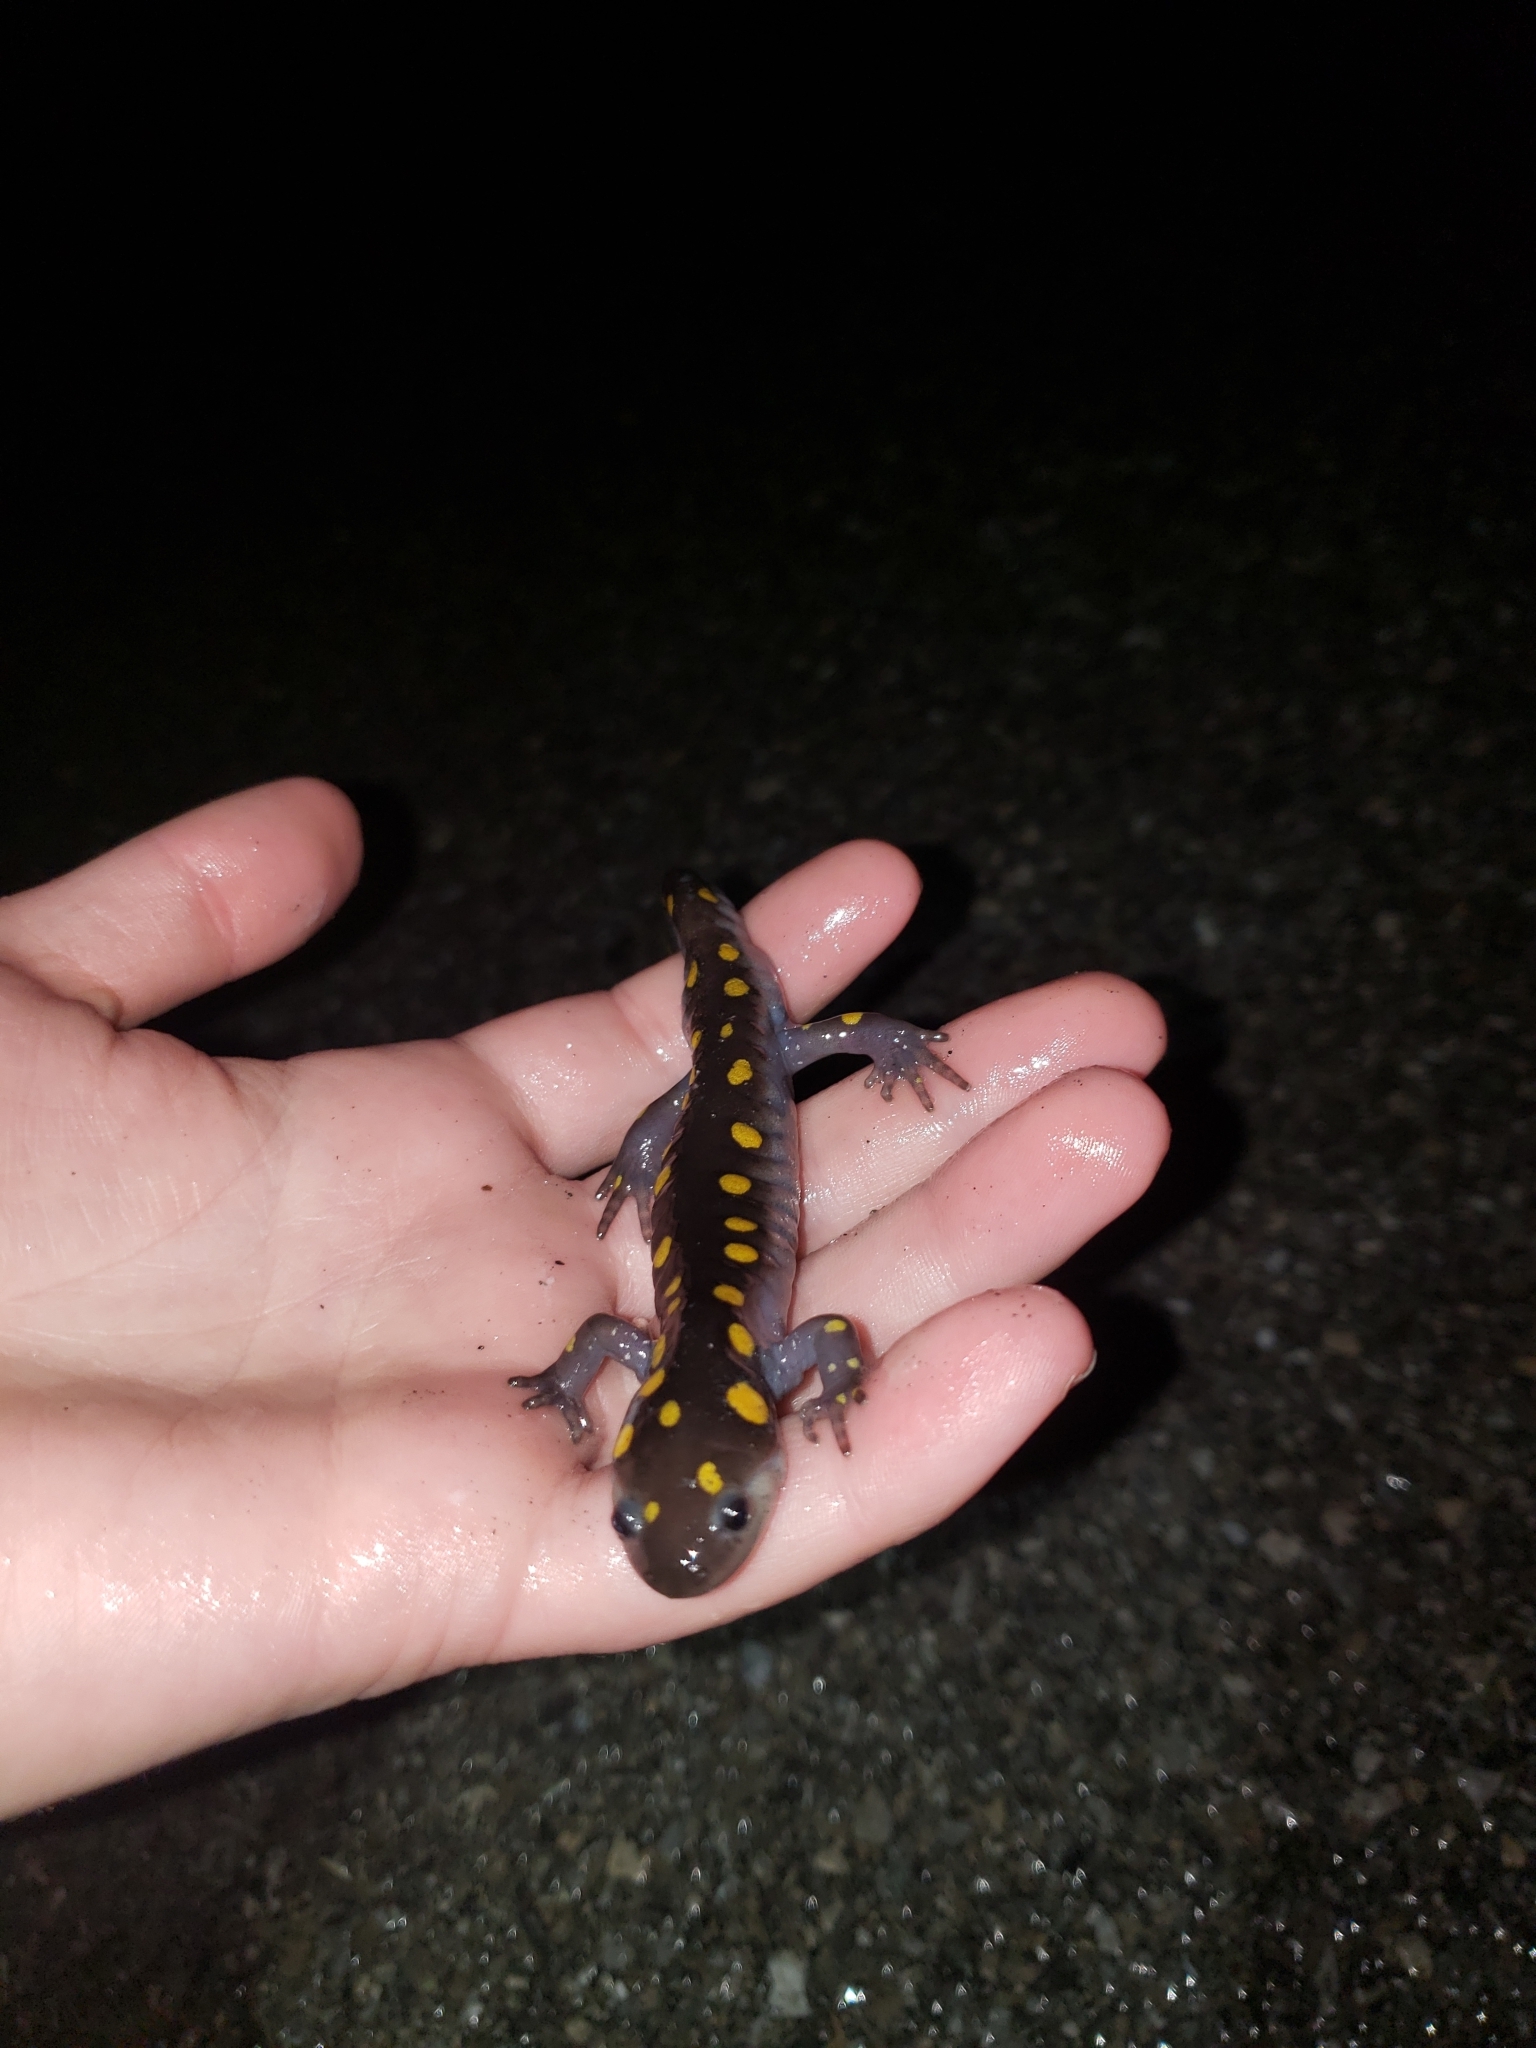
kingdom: Animalia
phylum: Chordata
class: Amphibia
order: Caudata
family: Ambystomatidae
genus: Ambystoma
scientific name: Ambystoma maculatum
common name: Spotted salamander
